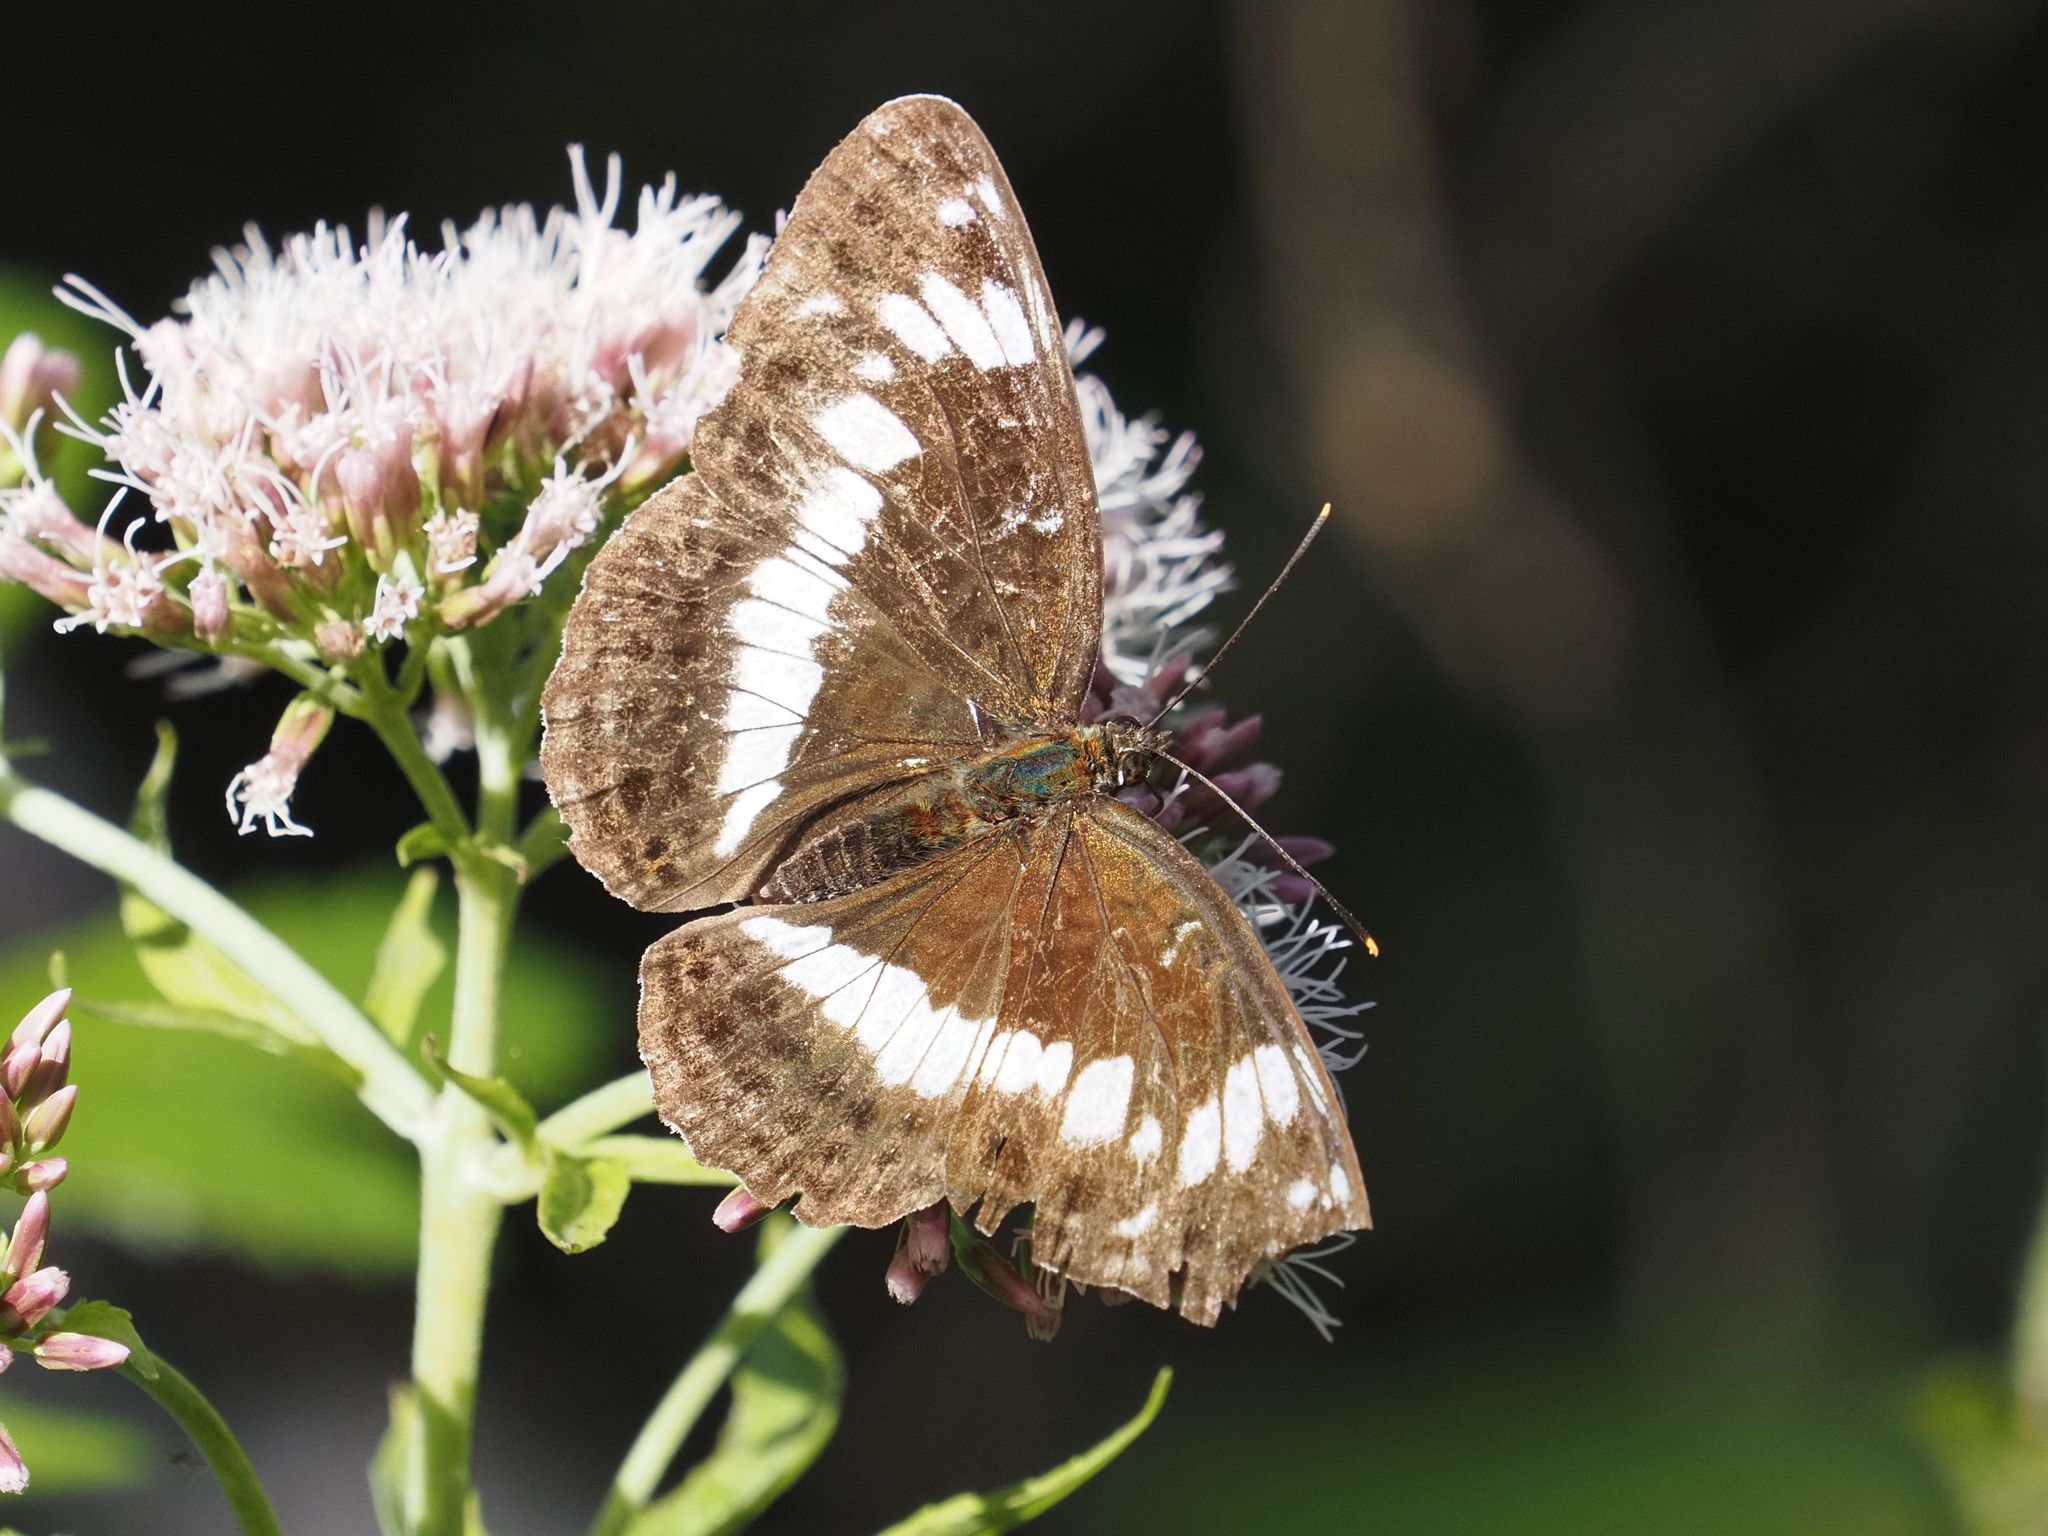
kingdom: Animalia
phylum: Arthropoda
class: Insecta
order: Lepidoptera
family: Nymphalidae
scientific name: Nymphalidae
